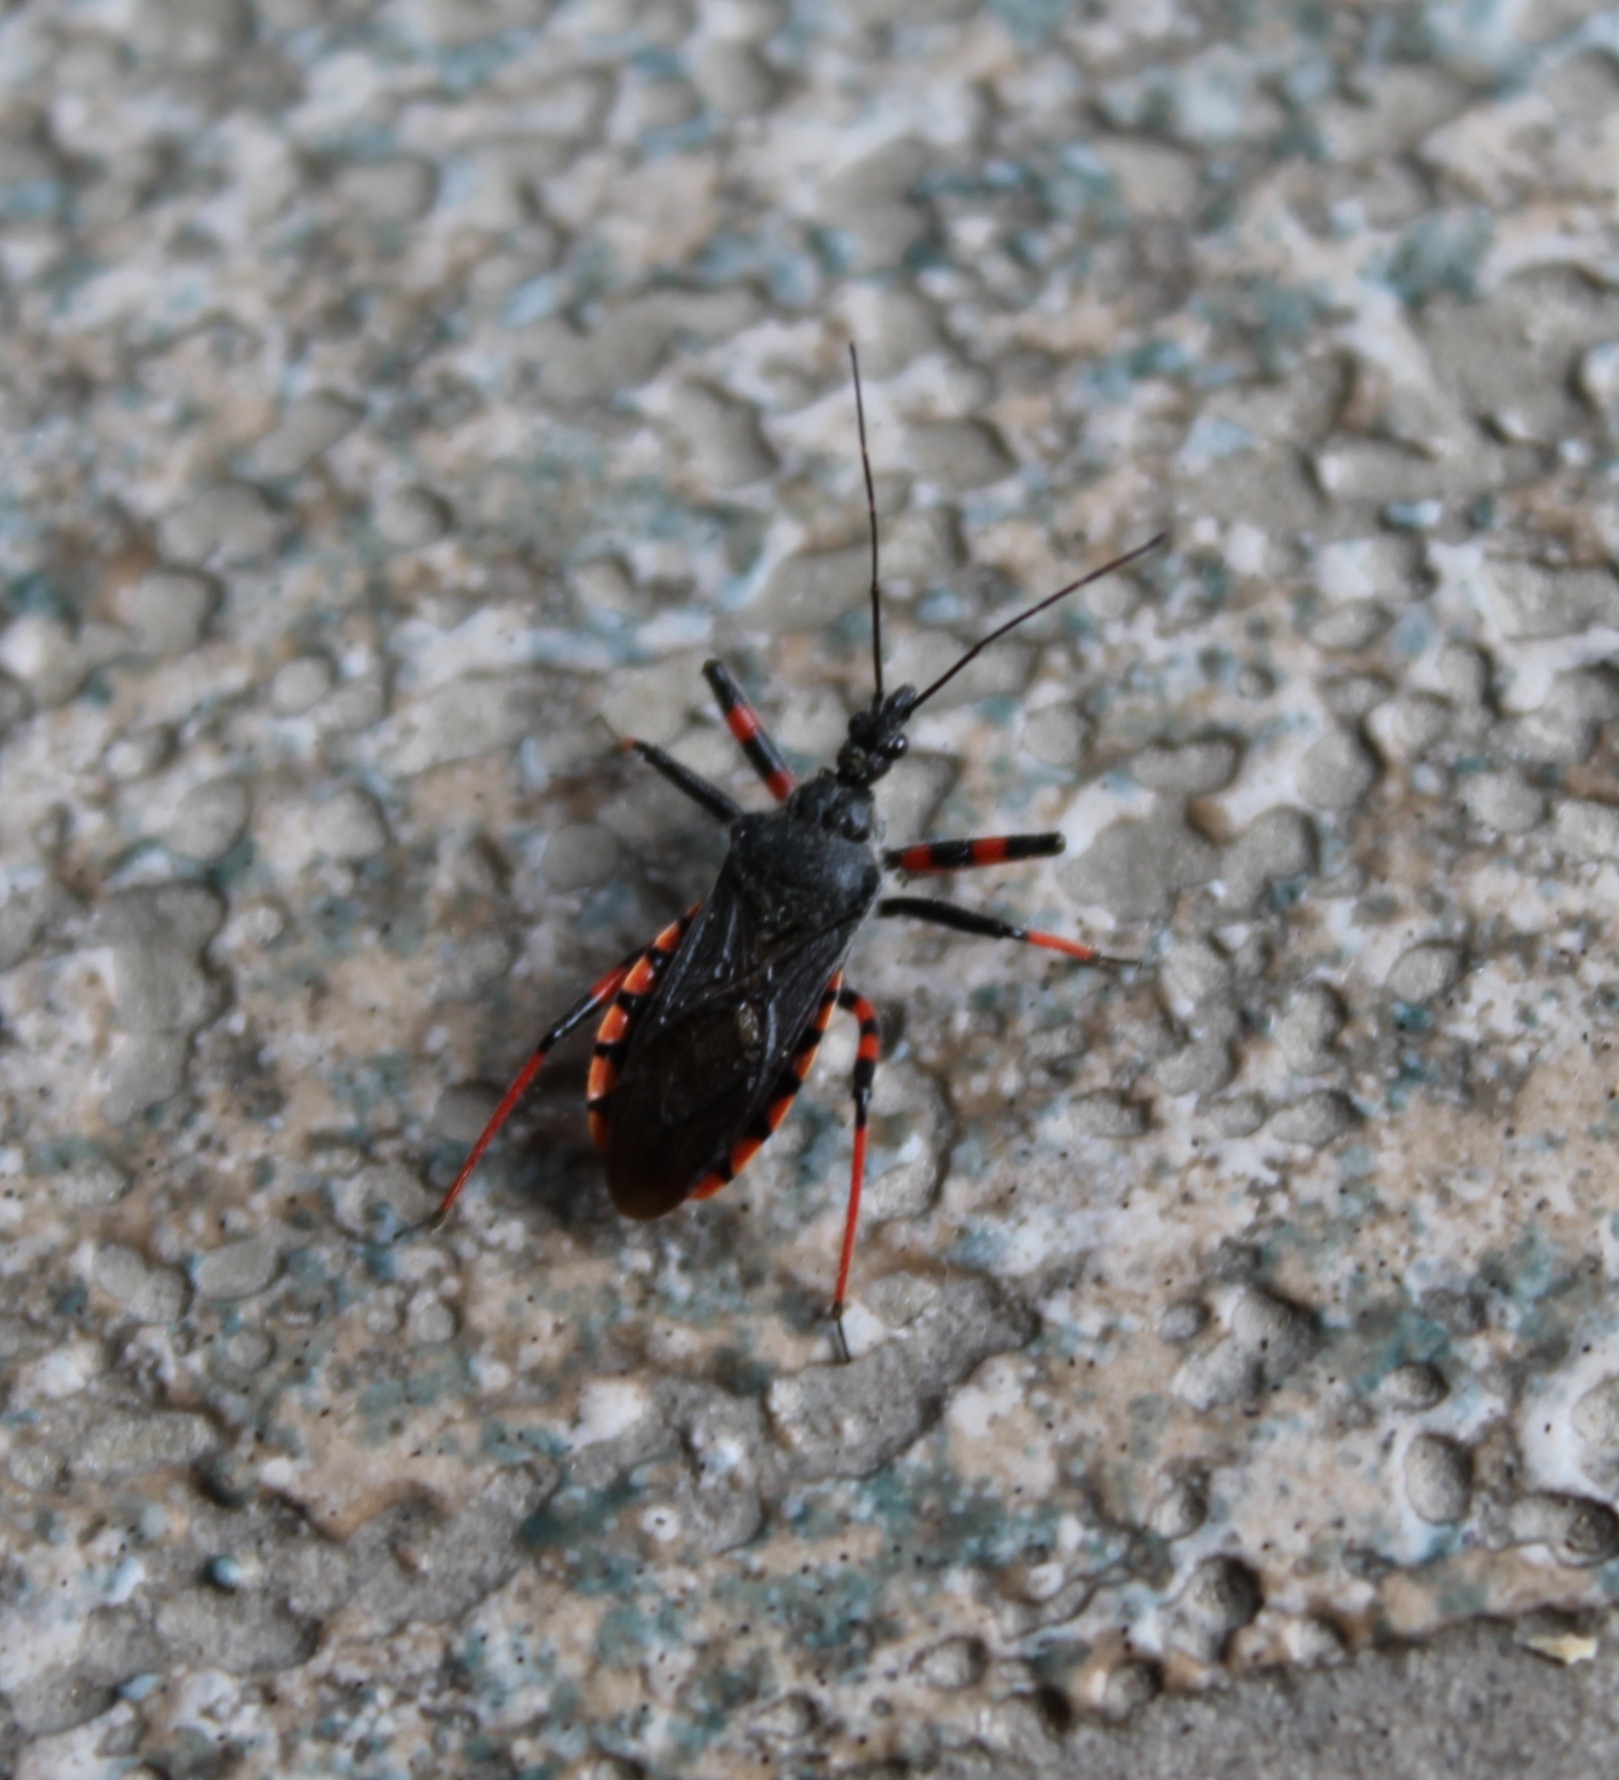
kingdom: Animalia
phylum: Arthropoda
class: Insecta
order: Hemiptera
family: Reduviidae
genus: Rhynocoris
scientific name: Rhynocoris annulatus
